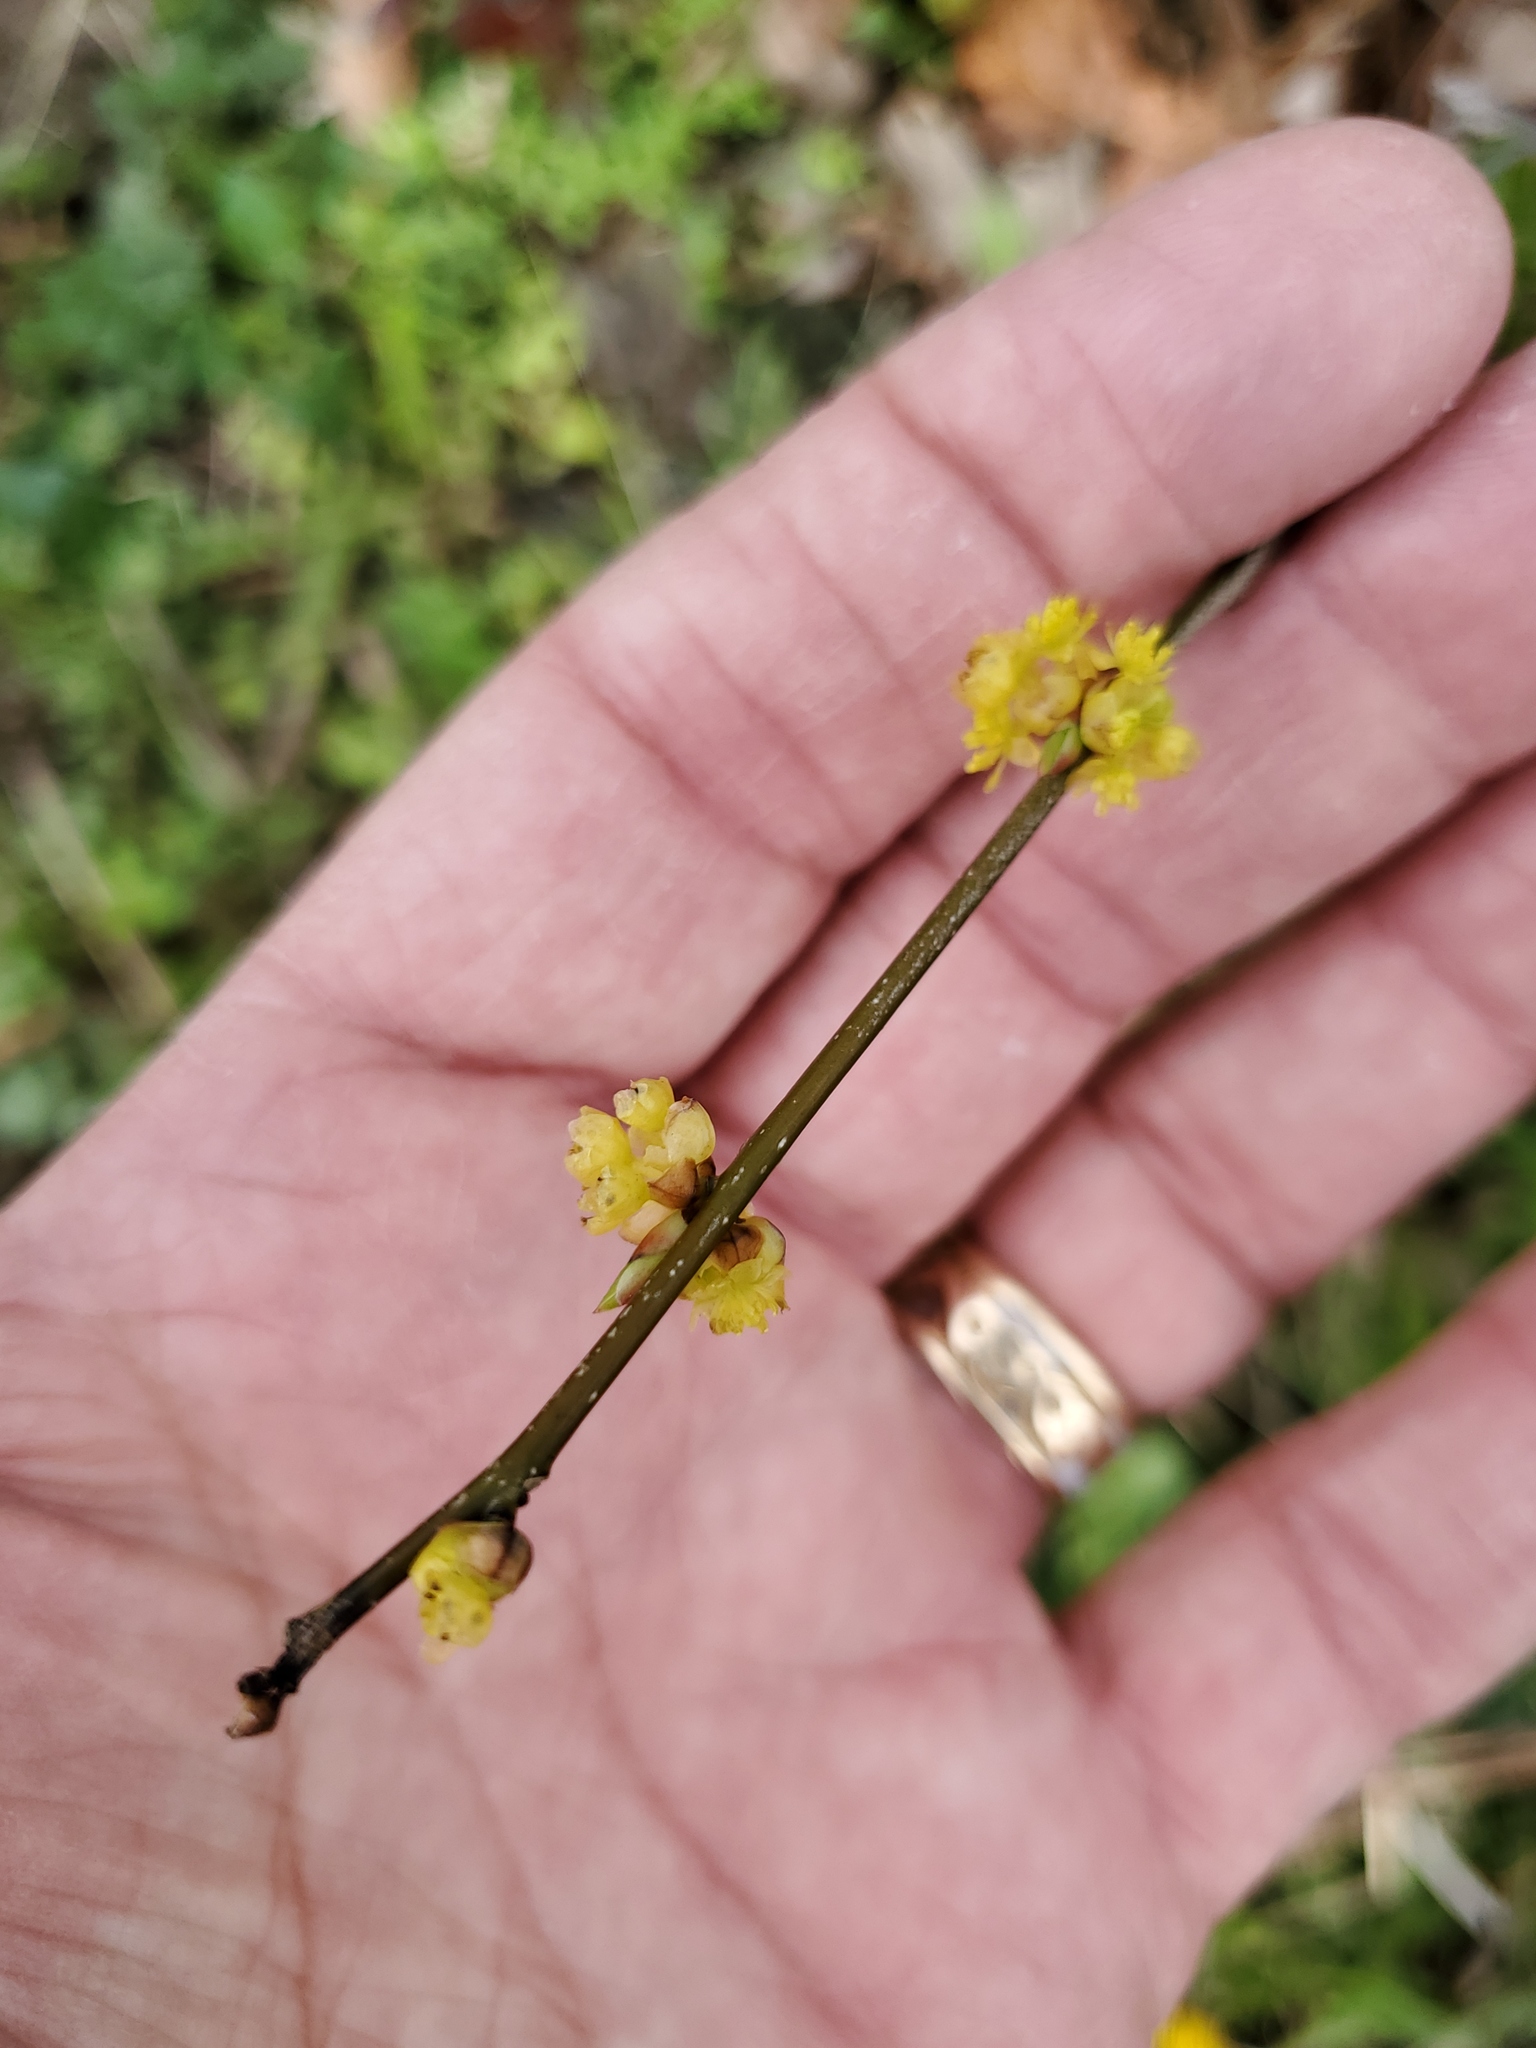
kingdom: Plantae
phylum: Tracheophyta
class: Magnoliopsida
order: Laurales
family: Lauraceae
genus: Lindera
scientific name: Lindera benzoin
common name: Spicebush
